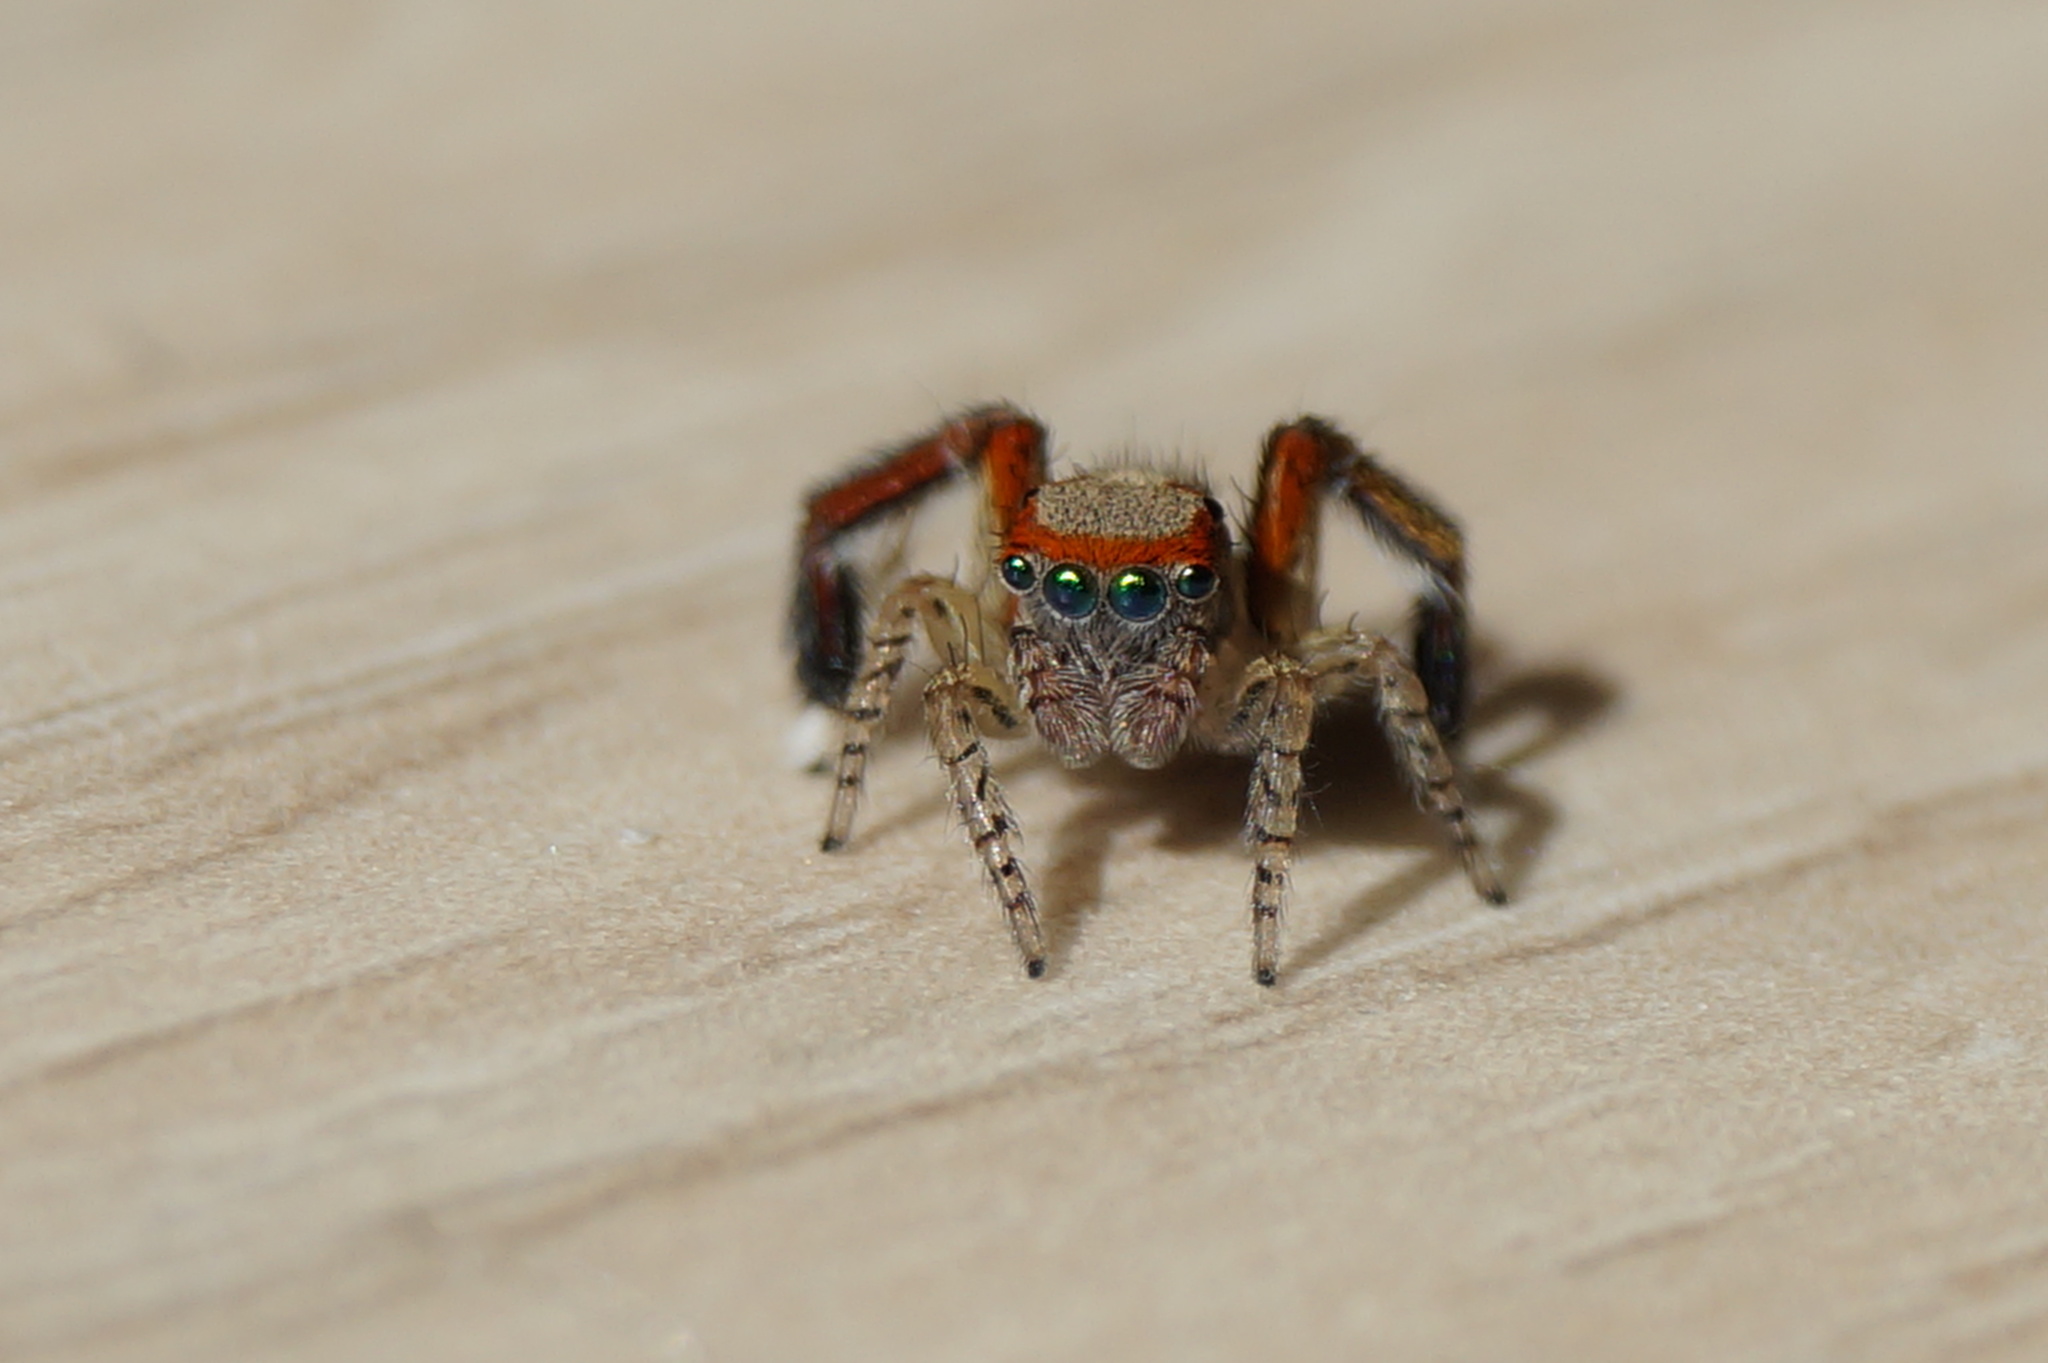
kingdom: Animalia
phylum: Arthropoda
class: Arachnida
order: Araneae
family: Salticidae
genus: Saitis
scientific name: Saitis barbipes
